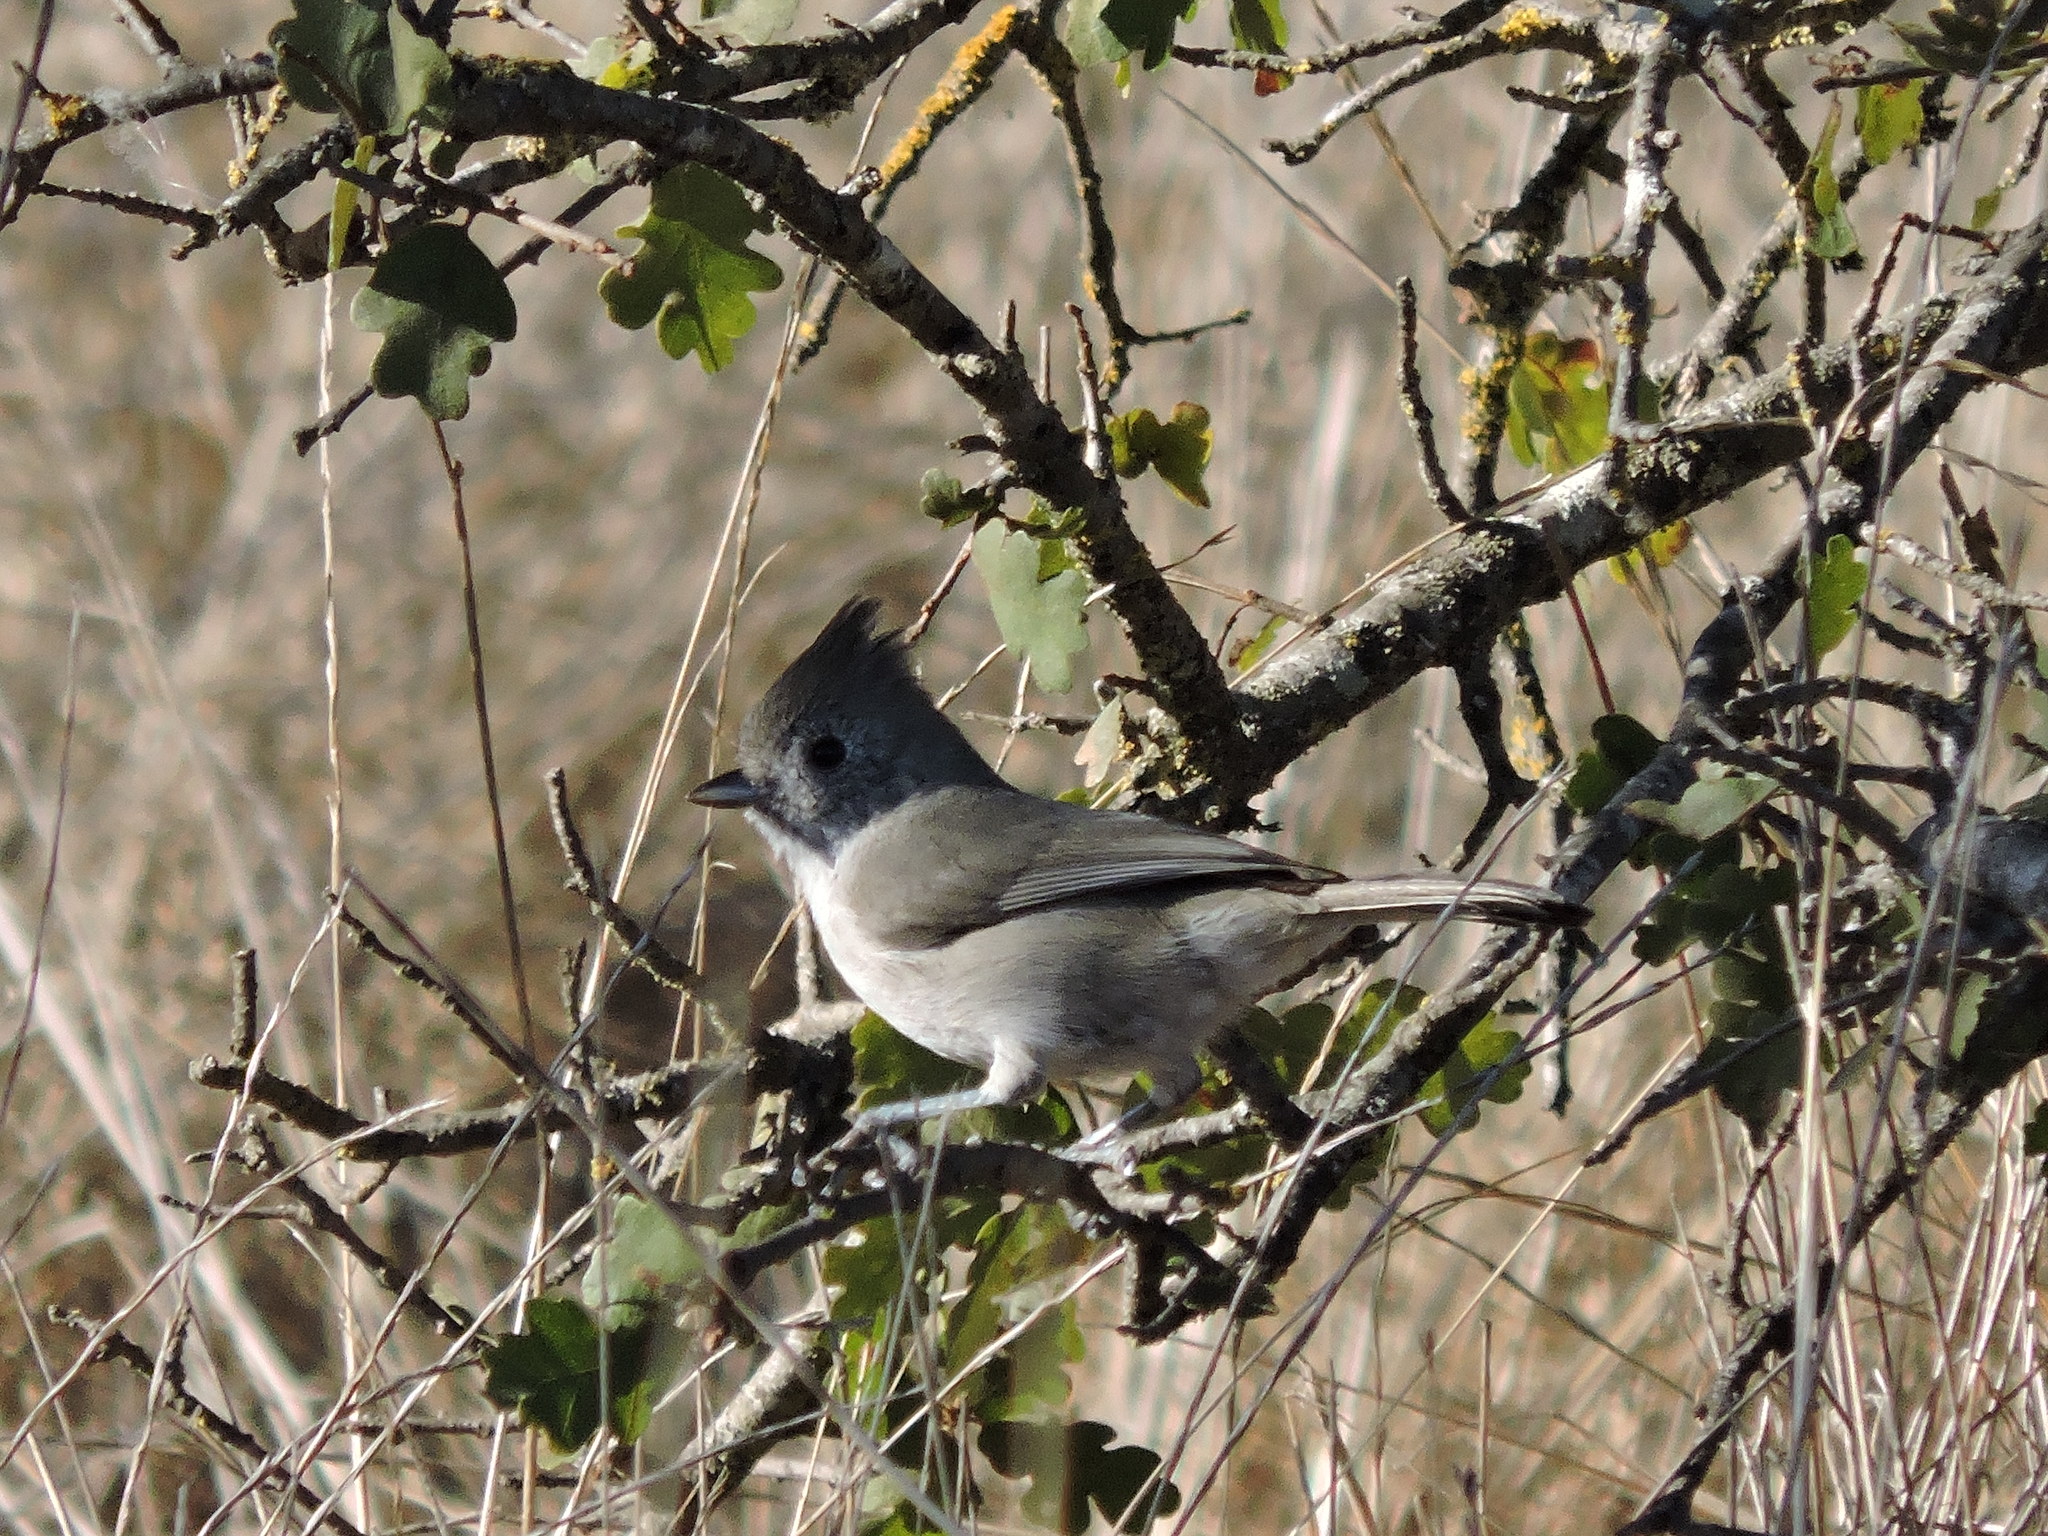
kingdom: Animalia
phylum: Chordata
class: Aves
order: Passeriformes
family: Paridae
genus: Baeolophus
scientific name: Baeolophus inornatus
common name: Oak titmouse
